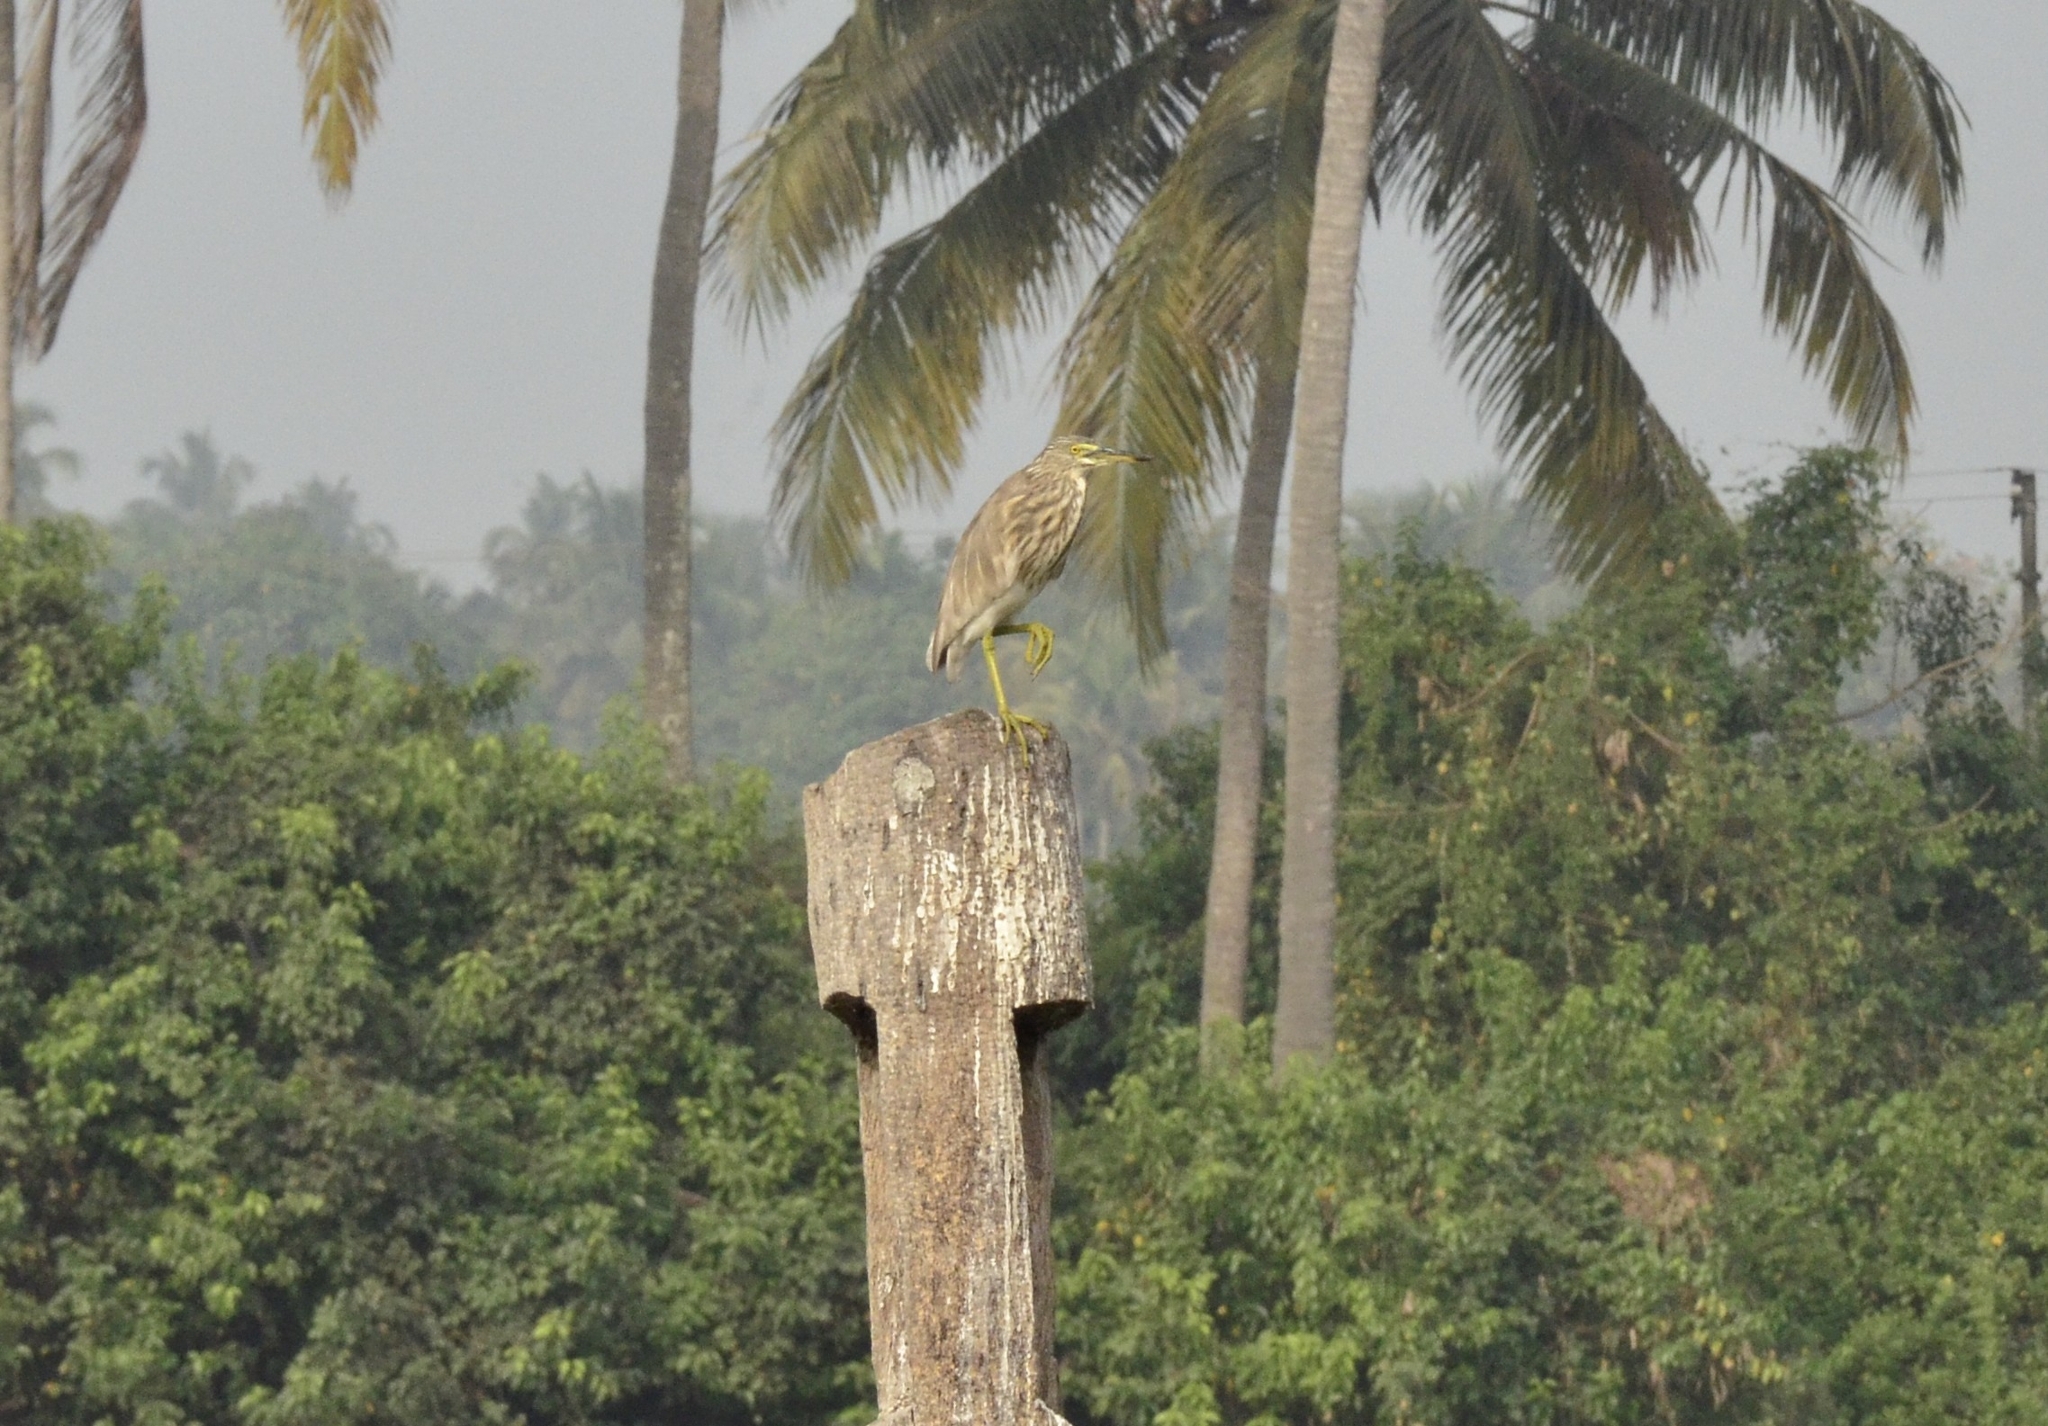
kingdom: Animalia
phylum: Chordata
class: Aves
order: Pelecaniformes
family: Ardeidae
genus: Ardeola
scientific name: Ardeola grayii
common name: Indian pond heron
